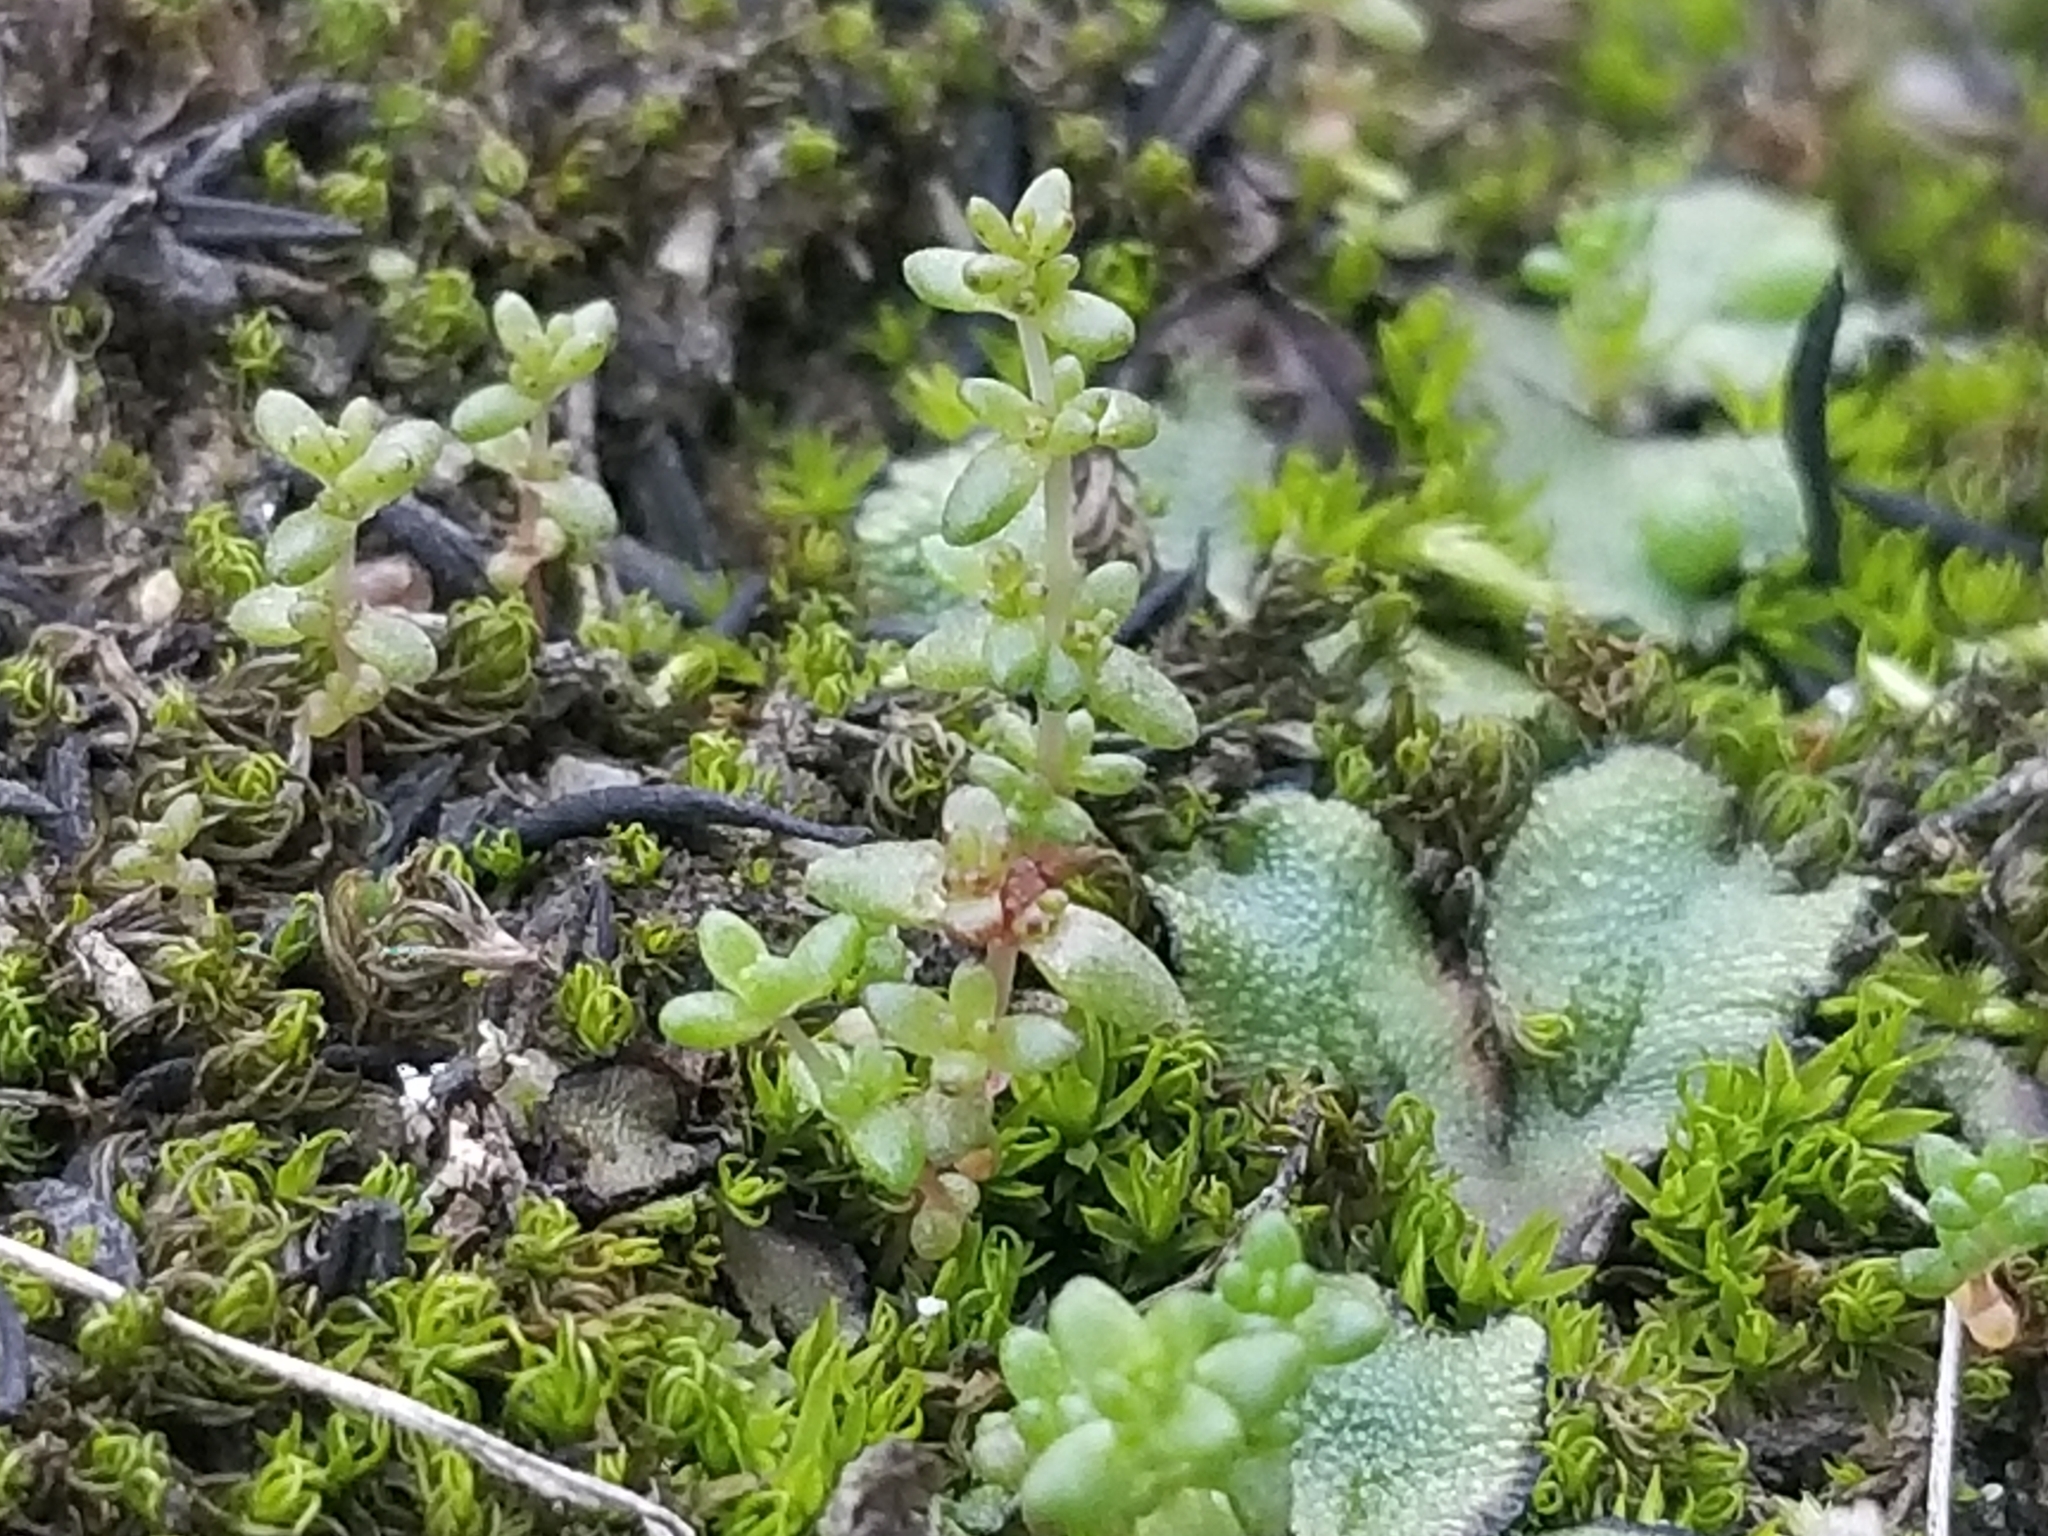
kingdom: Plantae
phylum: Tracheophyta
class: Magnoliopsida
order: Saxifragales
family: Crassulaceae
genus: Crassula
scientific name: Crassula connata
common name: Erect pygmyweed
